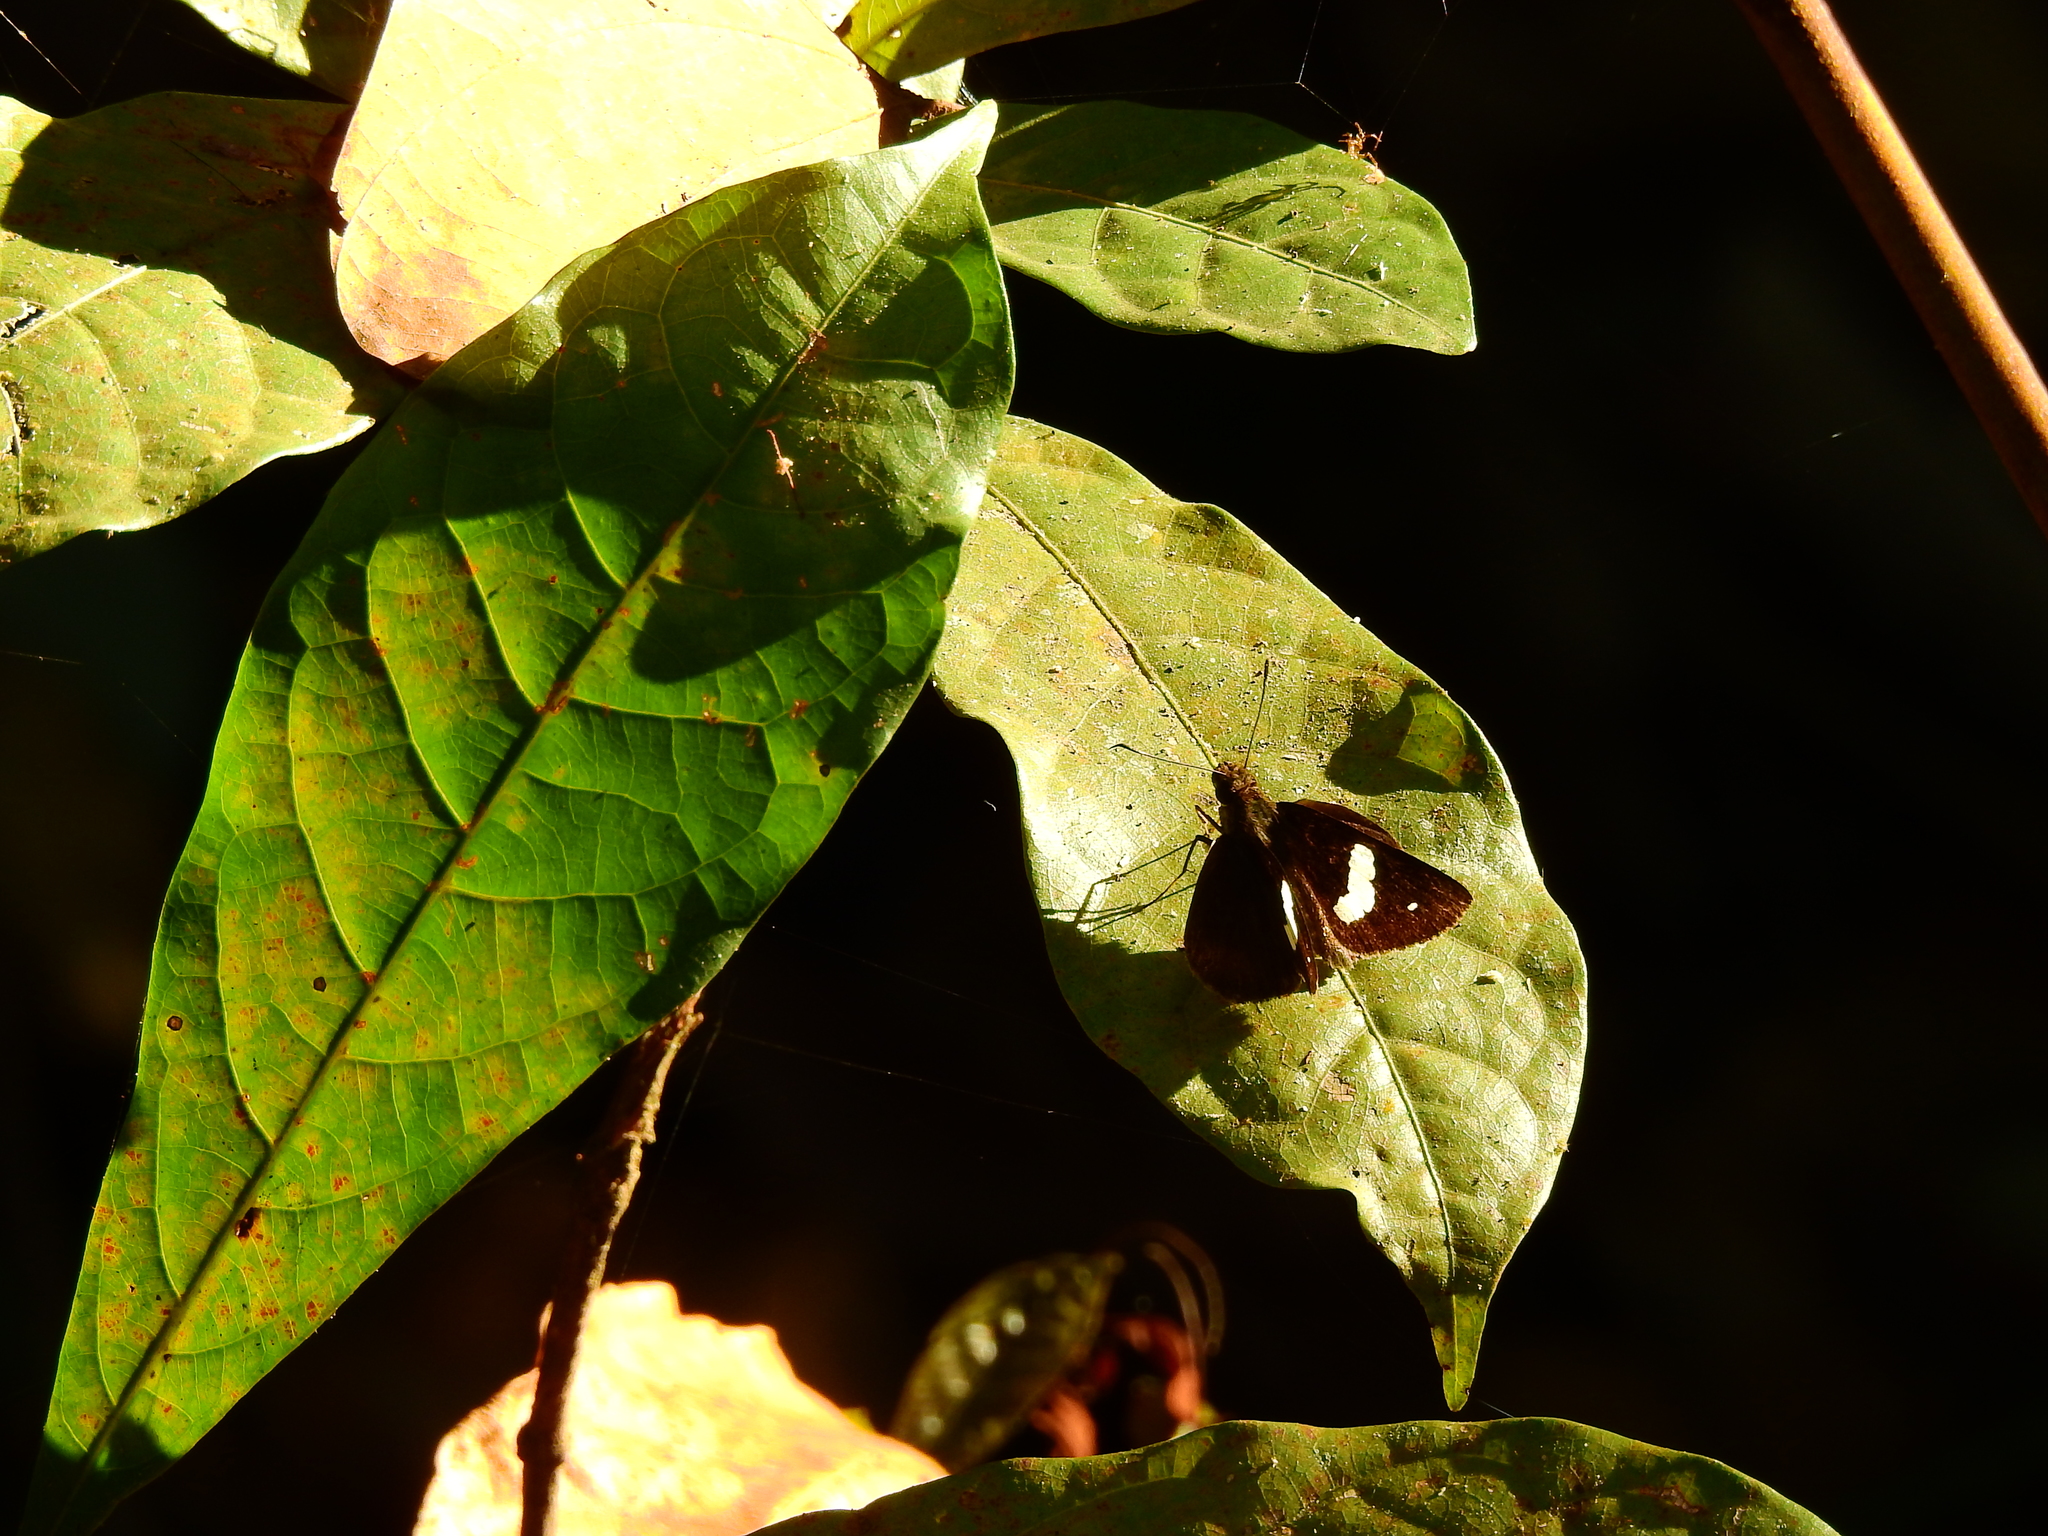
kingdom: Animalia
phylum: Arthropoda
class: Insecta
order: Lepidoptera
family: Hesperiidae
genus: Notocrypta
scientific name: Notocrypta paralysos
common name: Common banded demon
